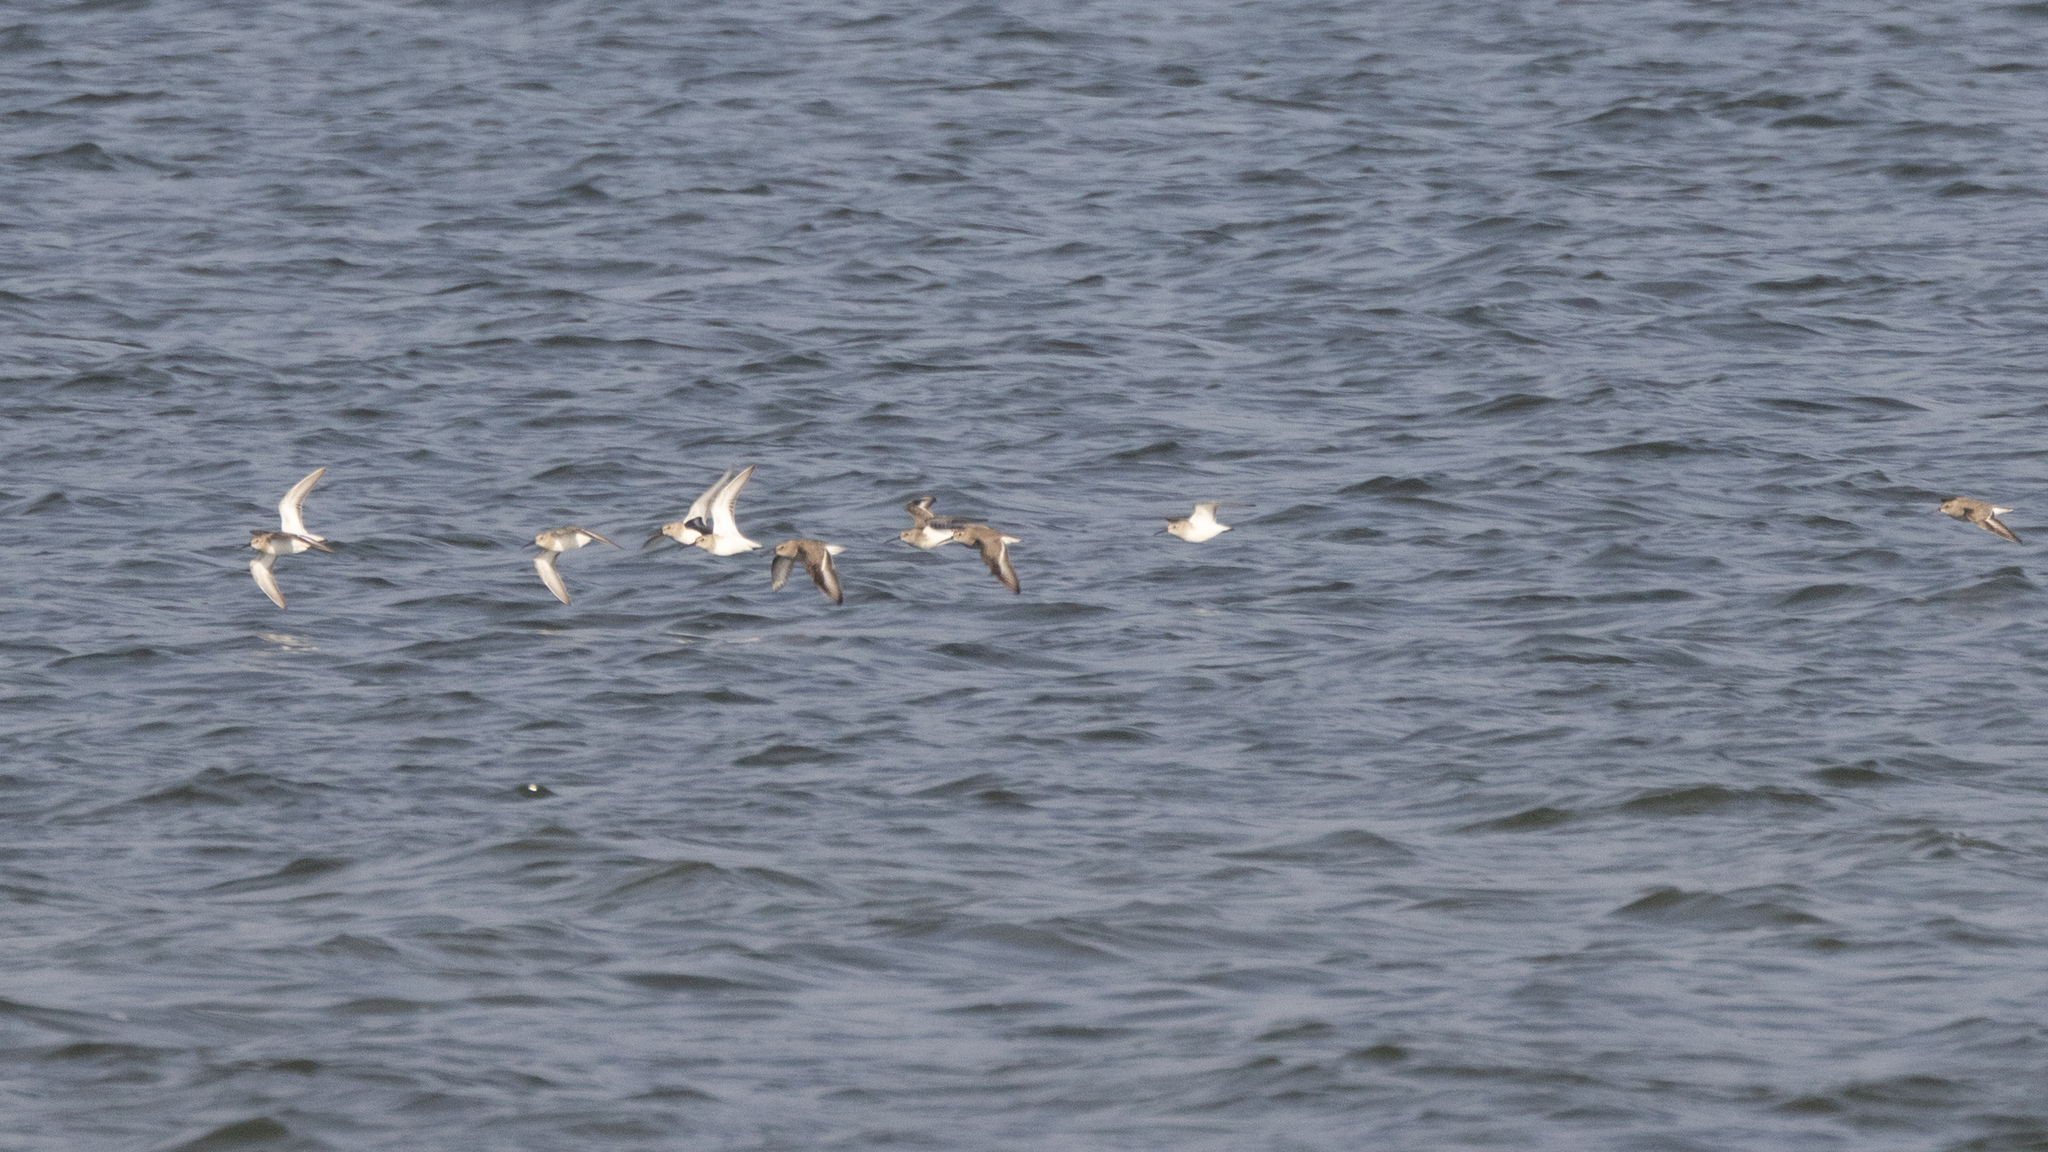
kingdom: Animalia
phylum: Chordata
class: Aves
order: Charadriiformes
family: Scolopacidae
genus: Calidris
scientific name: Calidris alpina
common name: Dunlin
